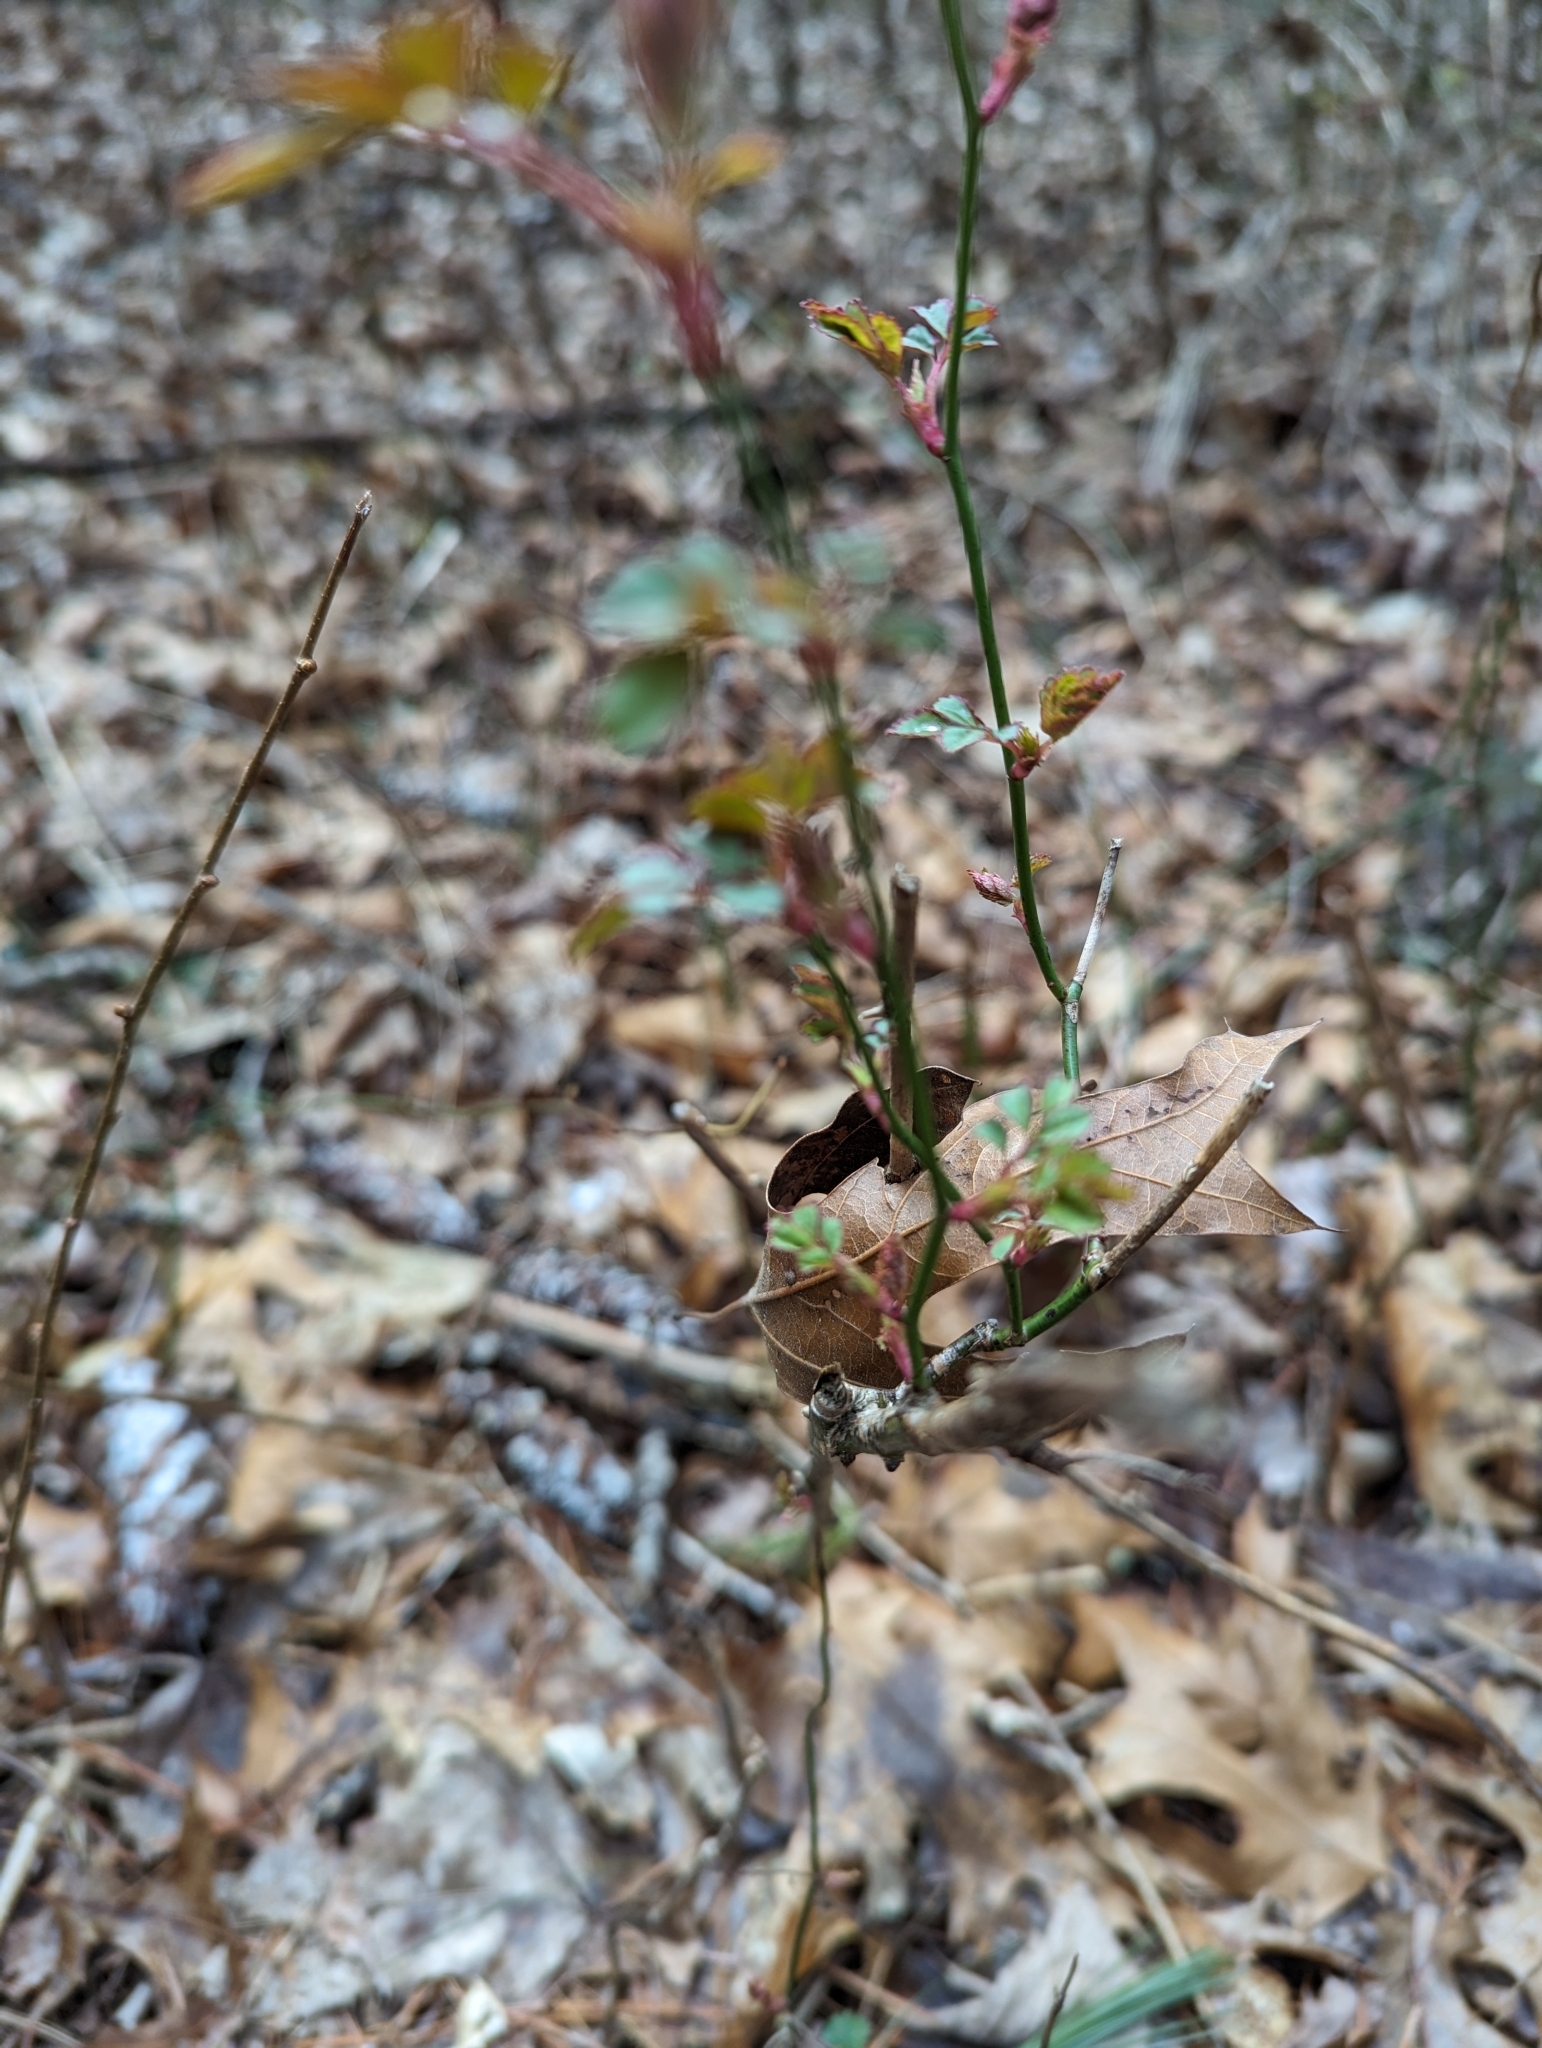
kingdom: Plantae
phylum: Tracheophyta
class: Magnoliopsida
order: Rosales
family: Rosaceae
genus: Rosa
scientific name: Rosa multiflora
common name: Multiflora rose
